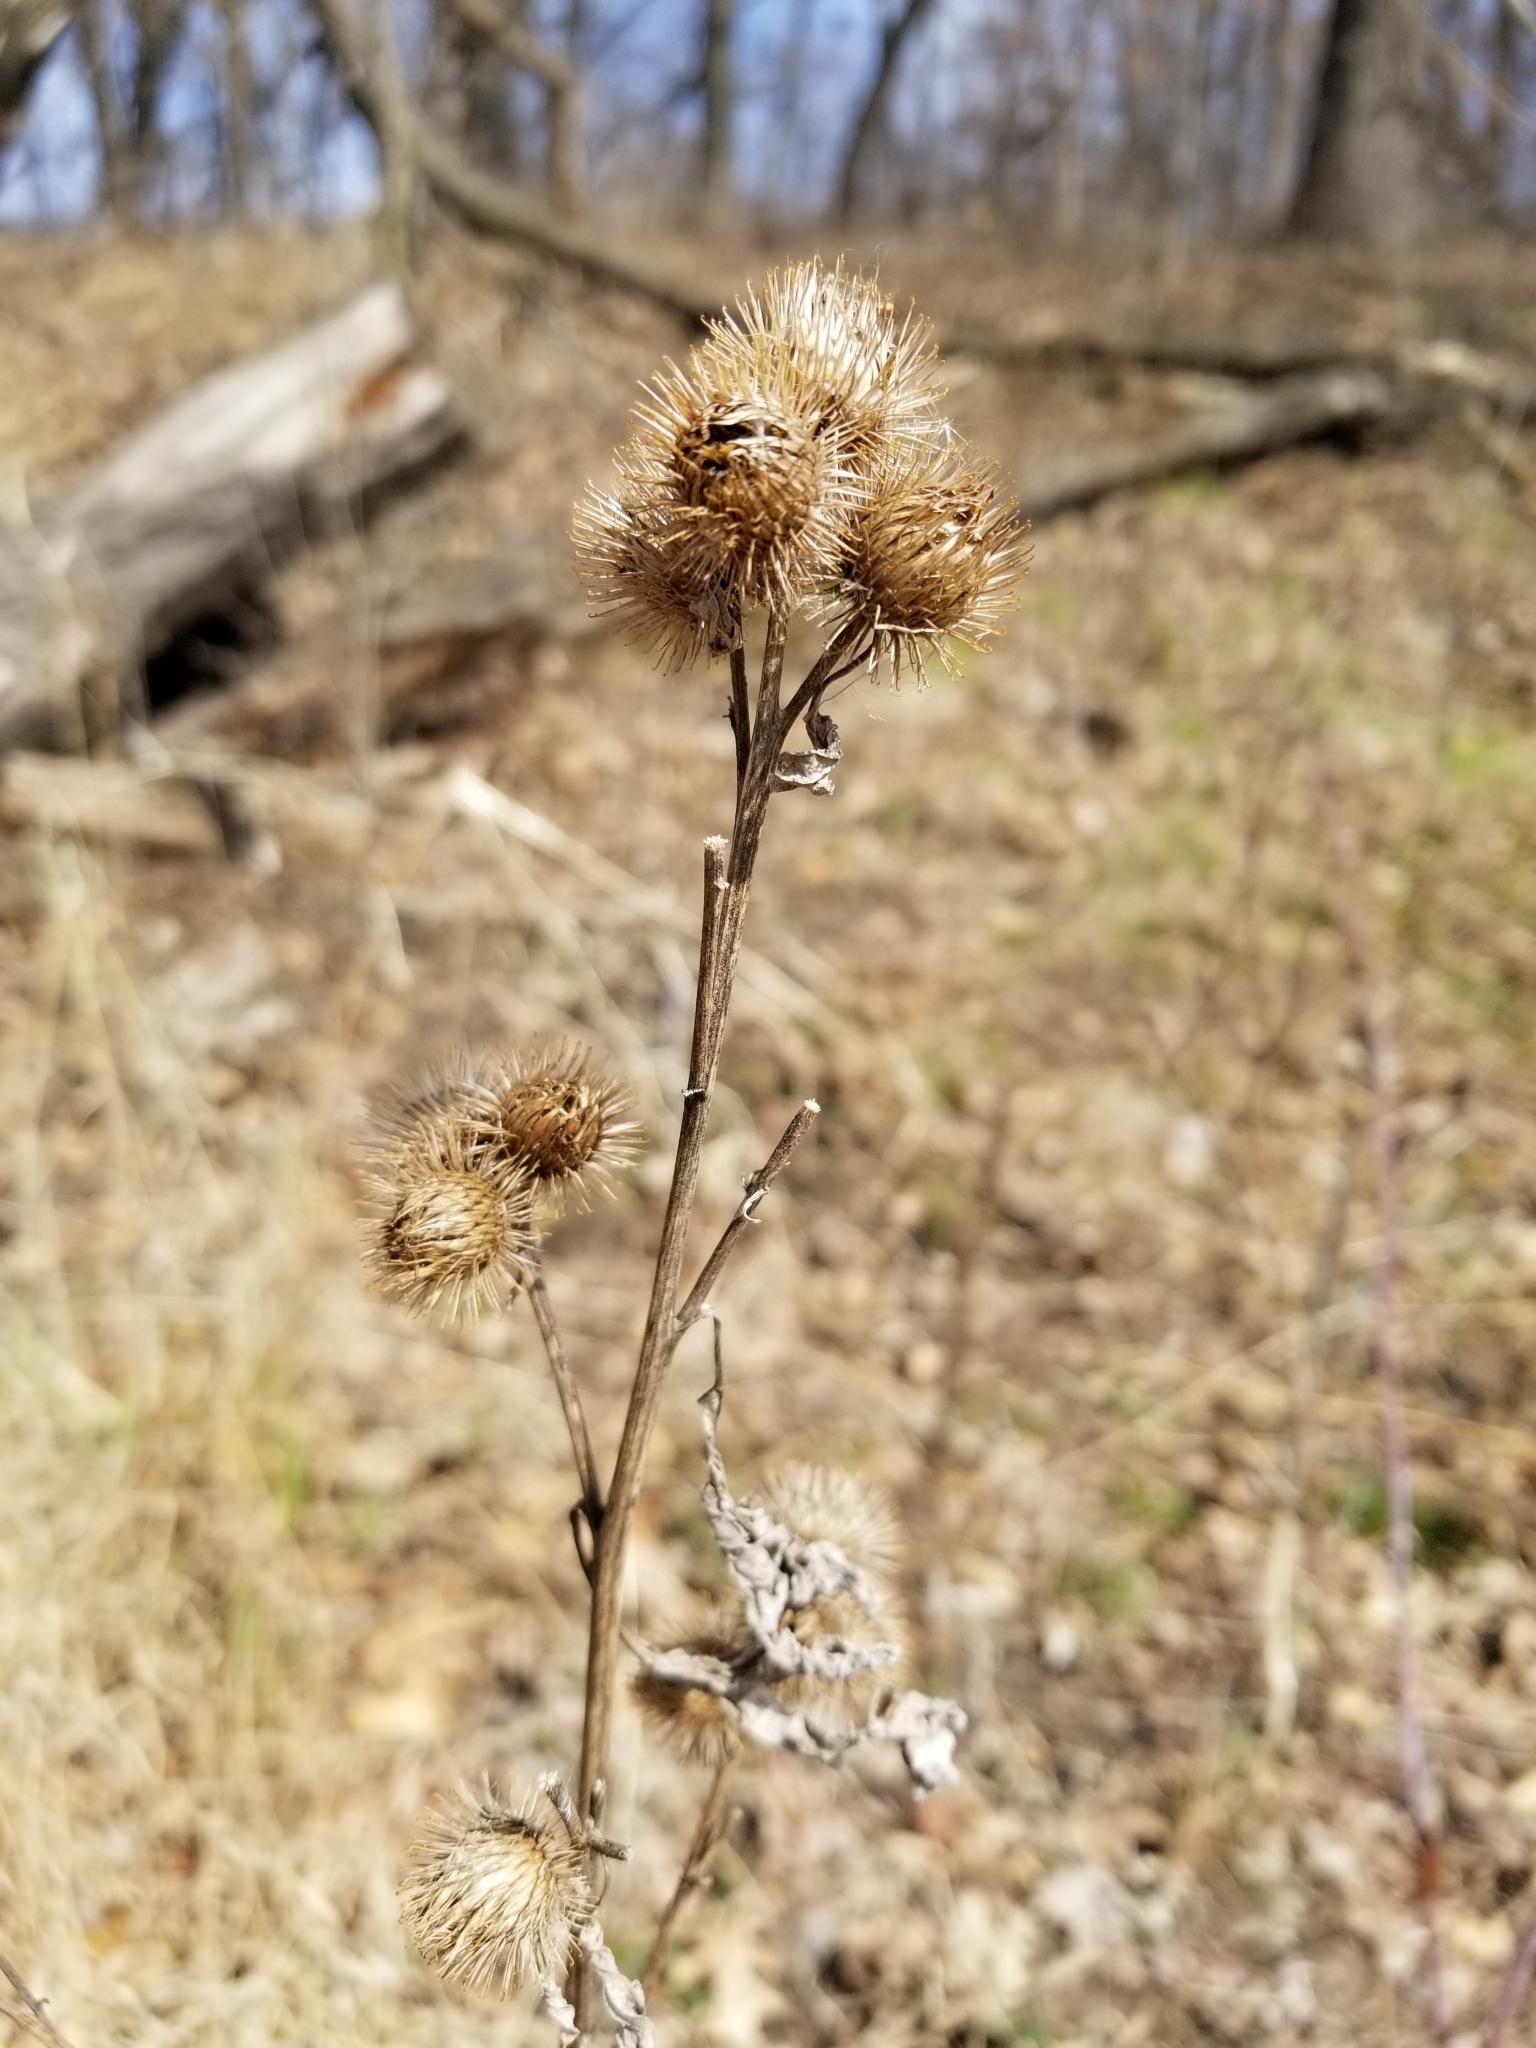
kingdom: Plantae
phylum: Tracheophyta
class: Magnoliopsida
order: Asterales
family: Asteraceae
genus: Arctium
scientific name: Arctium minus
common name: Lesser burdock
